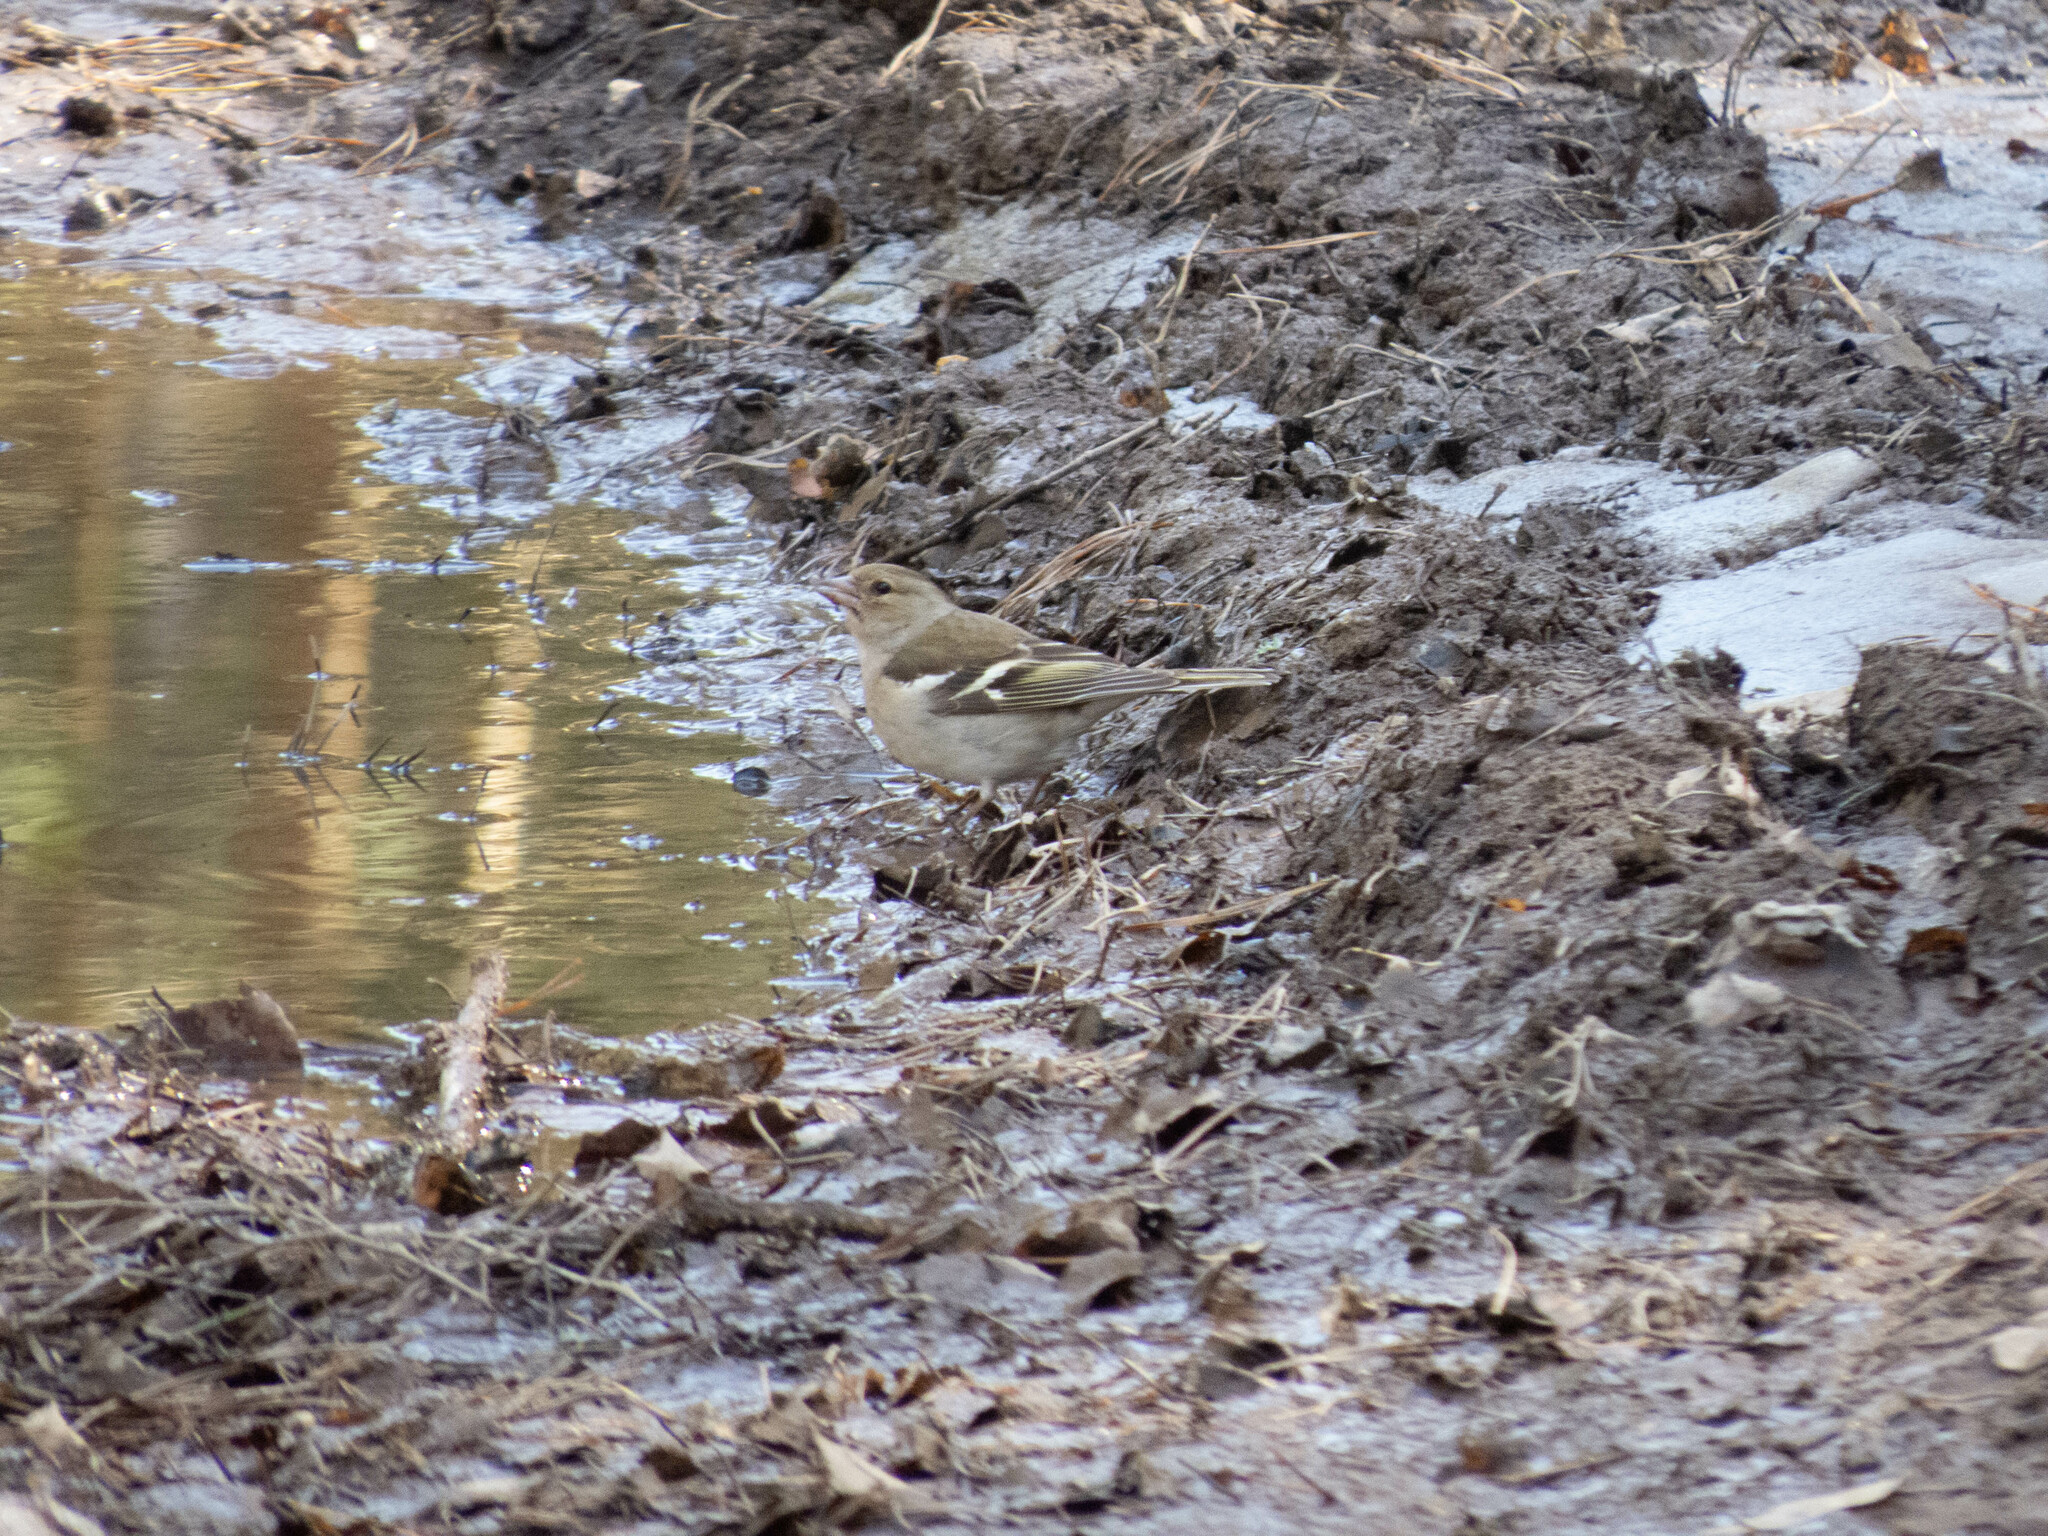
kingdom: Animalia
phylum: Chordata
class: Aves
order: Passeriformes
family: Fringillidae
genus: Fringilla
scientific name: Fringilla coelebs
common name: Common chaffinch
